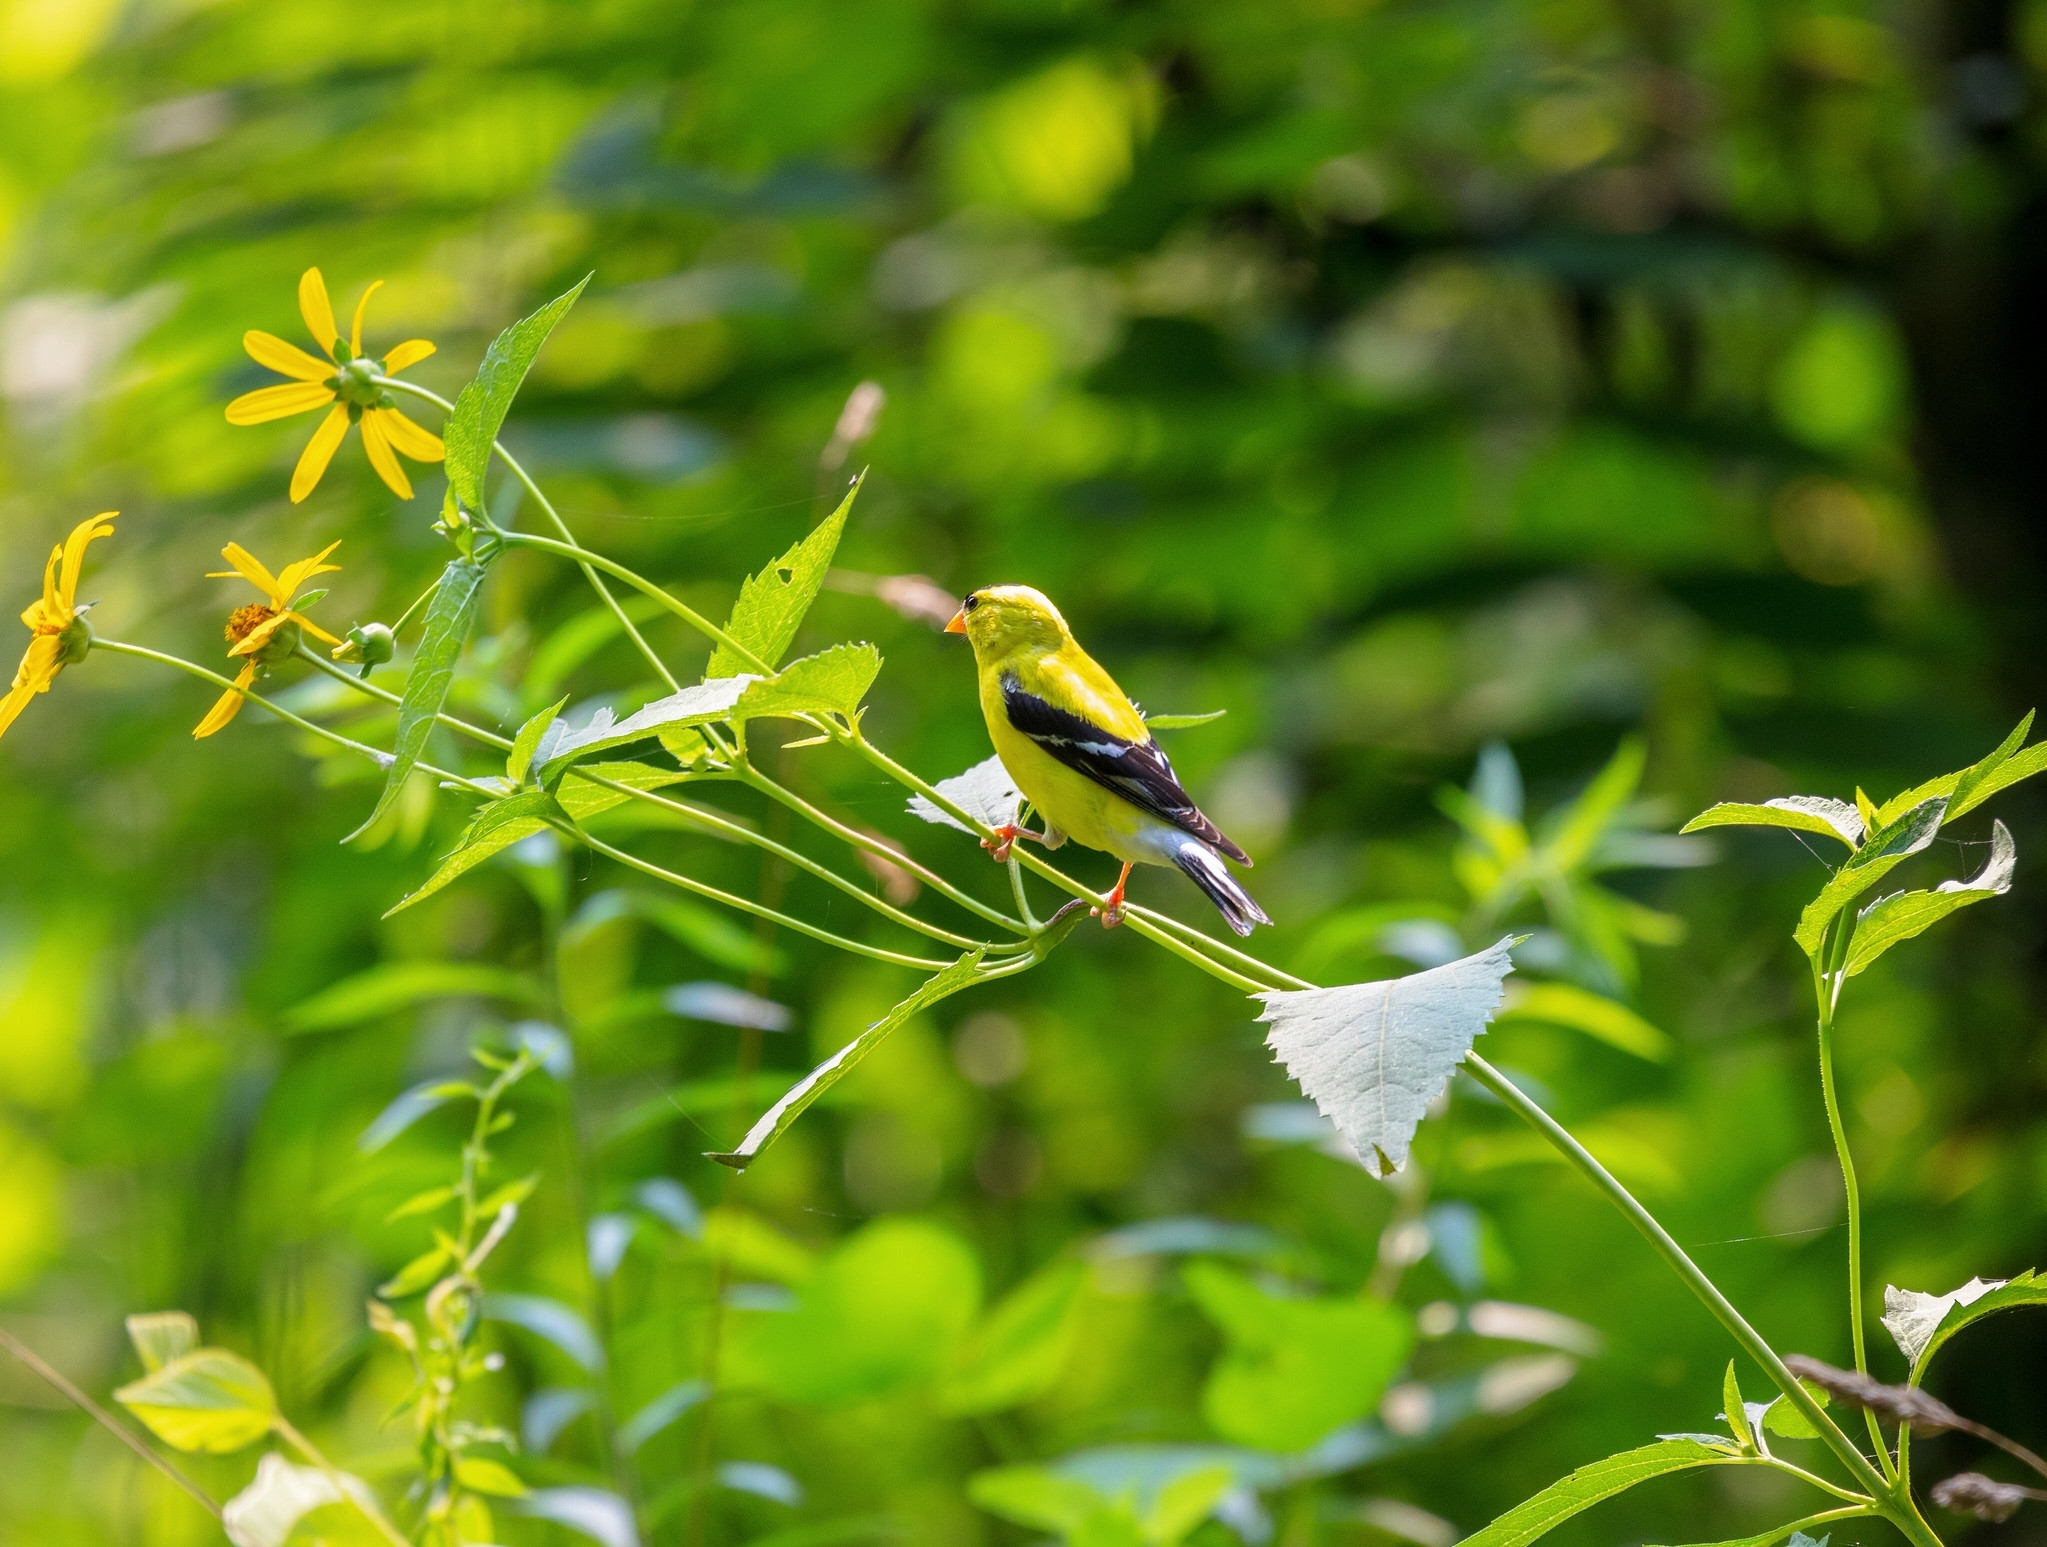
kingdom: Animalia
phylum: Chordata
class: Aves
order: Passeriformes
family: Fringillidae
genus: Spinus
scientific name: Spinus tristis
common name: American goldfinch
